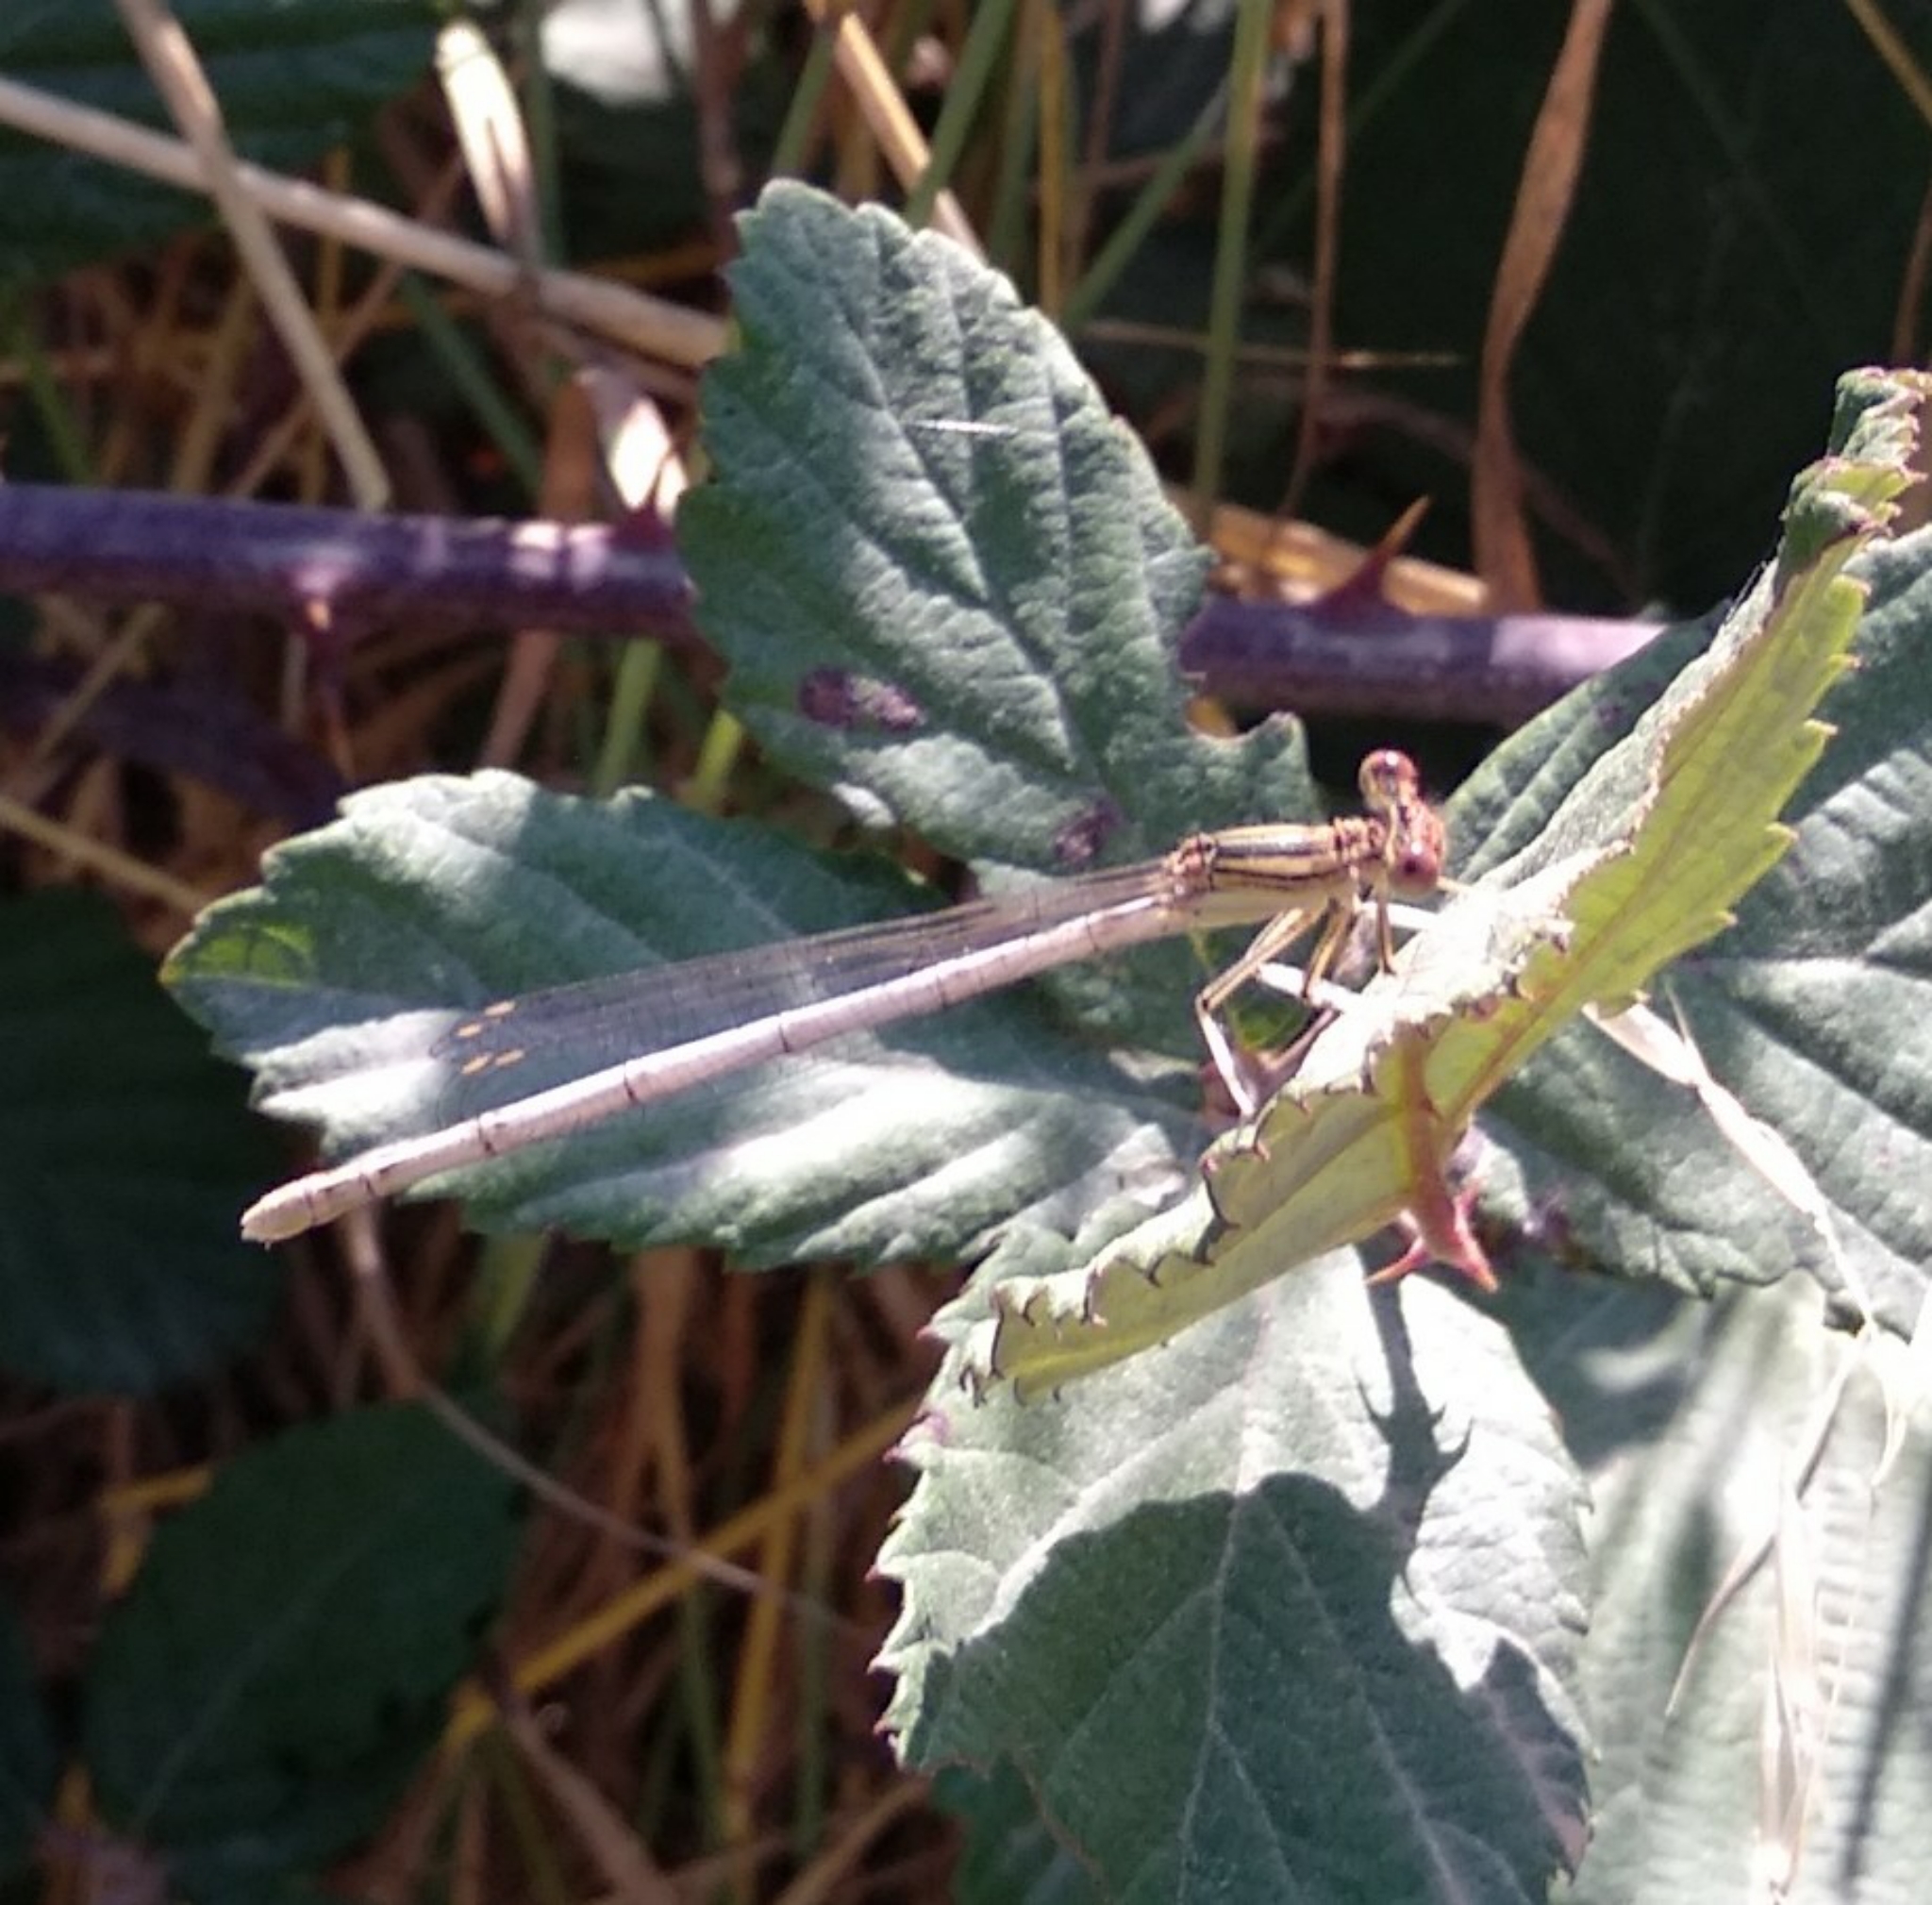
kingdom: Animalia
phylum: Arthropoda
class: Insecta
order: Odonata
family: Platycnemididae
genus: Platycnemis
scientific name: Platycnemis latipes
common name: White featherleg
